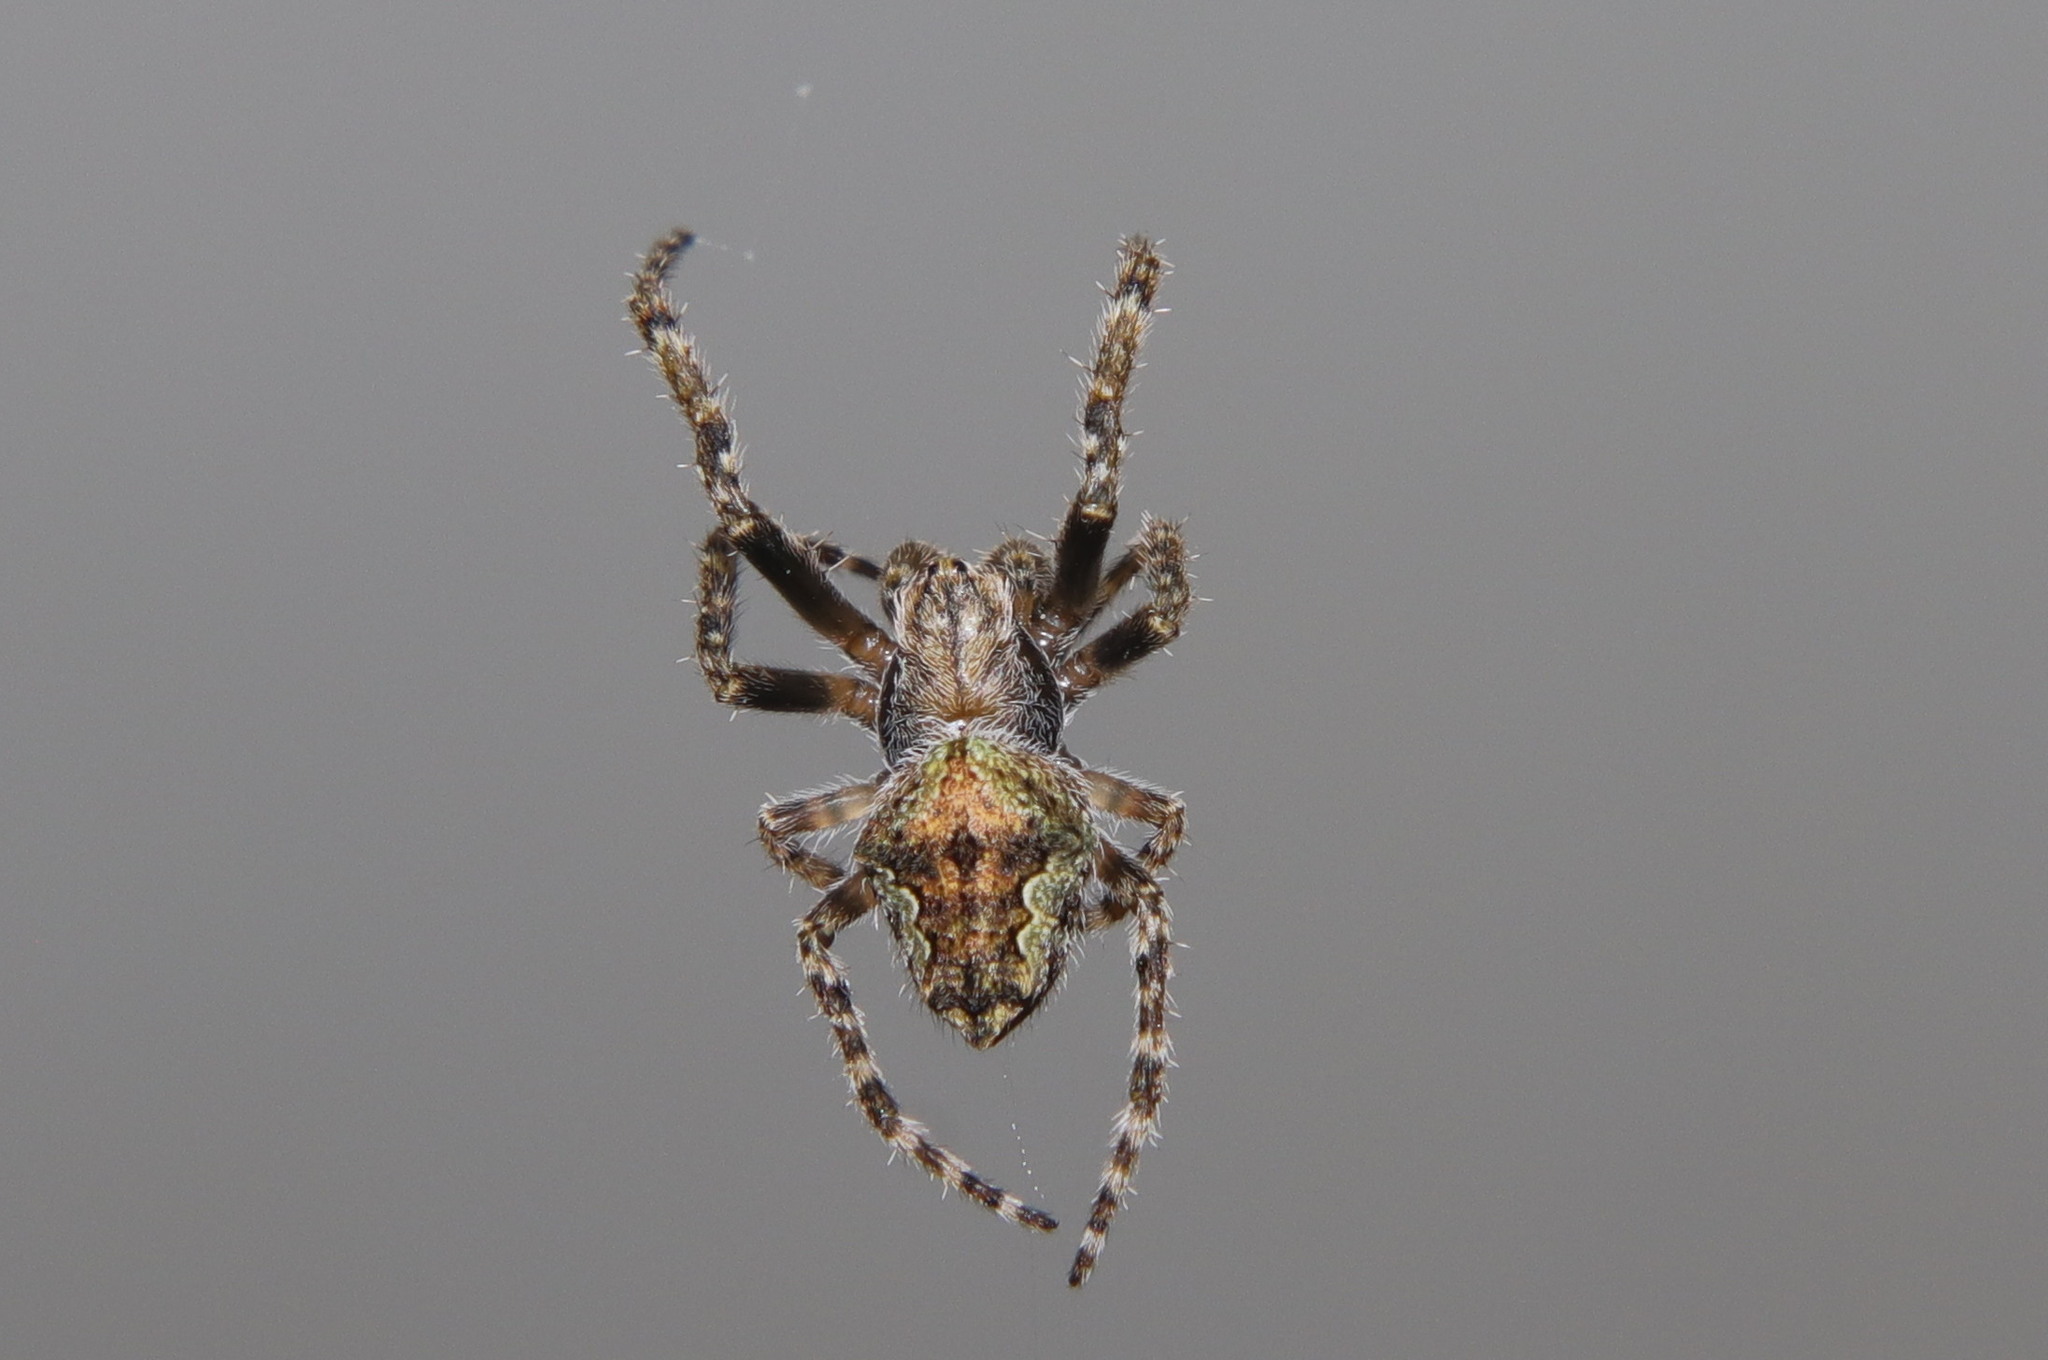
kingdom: Animalia
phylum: Arthropoda
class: Arachnida
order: Araneae
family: Araneidae
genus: Eriophora
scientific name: Eriophora pustulosa
